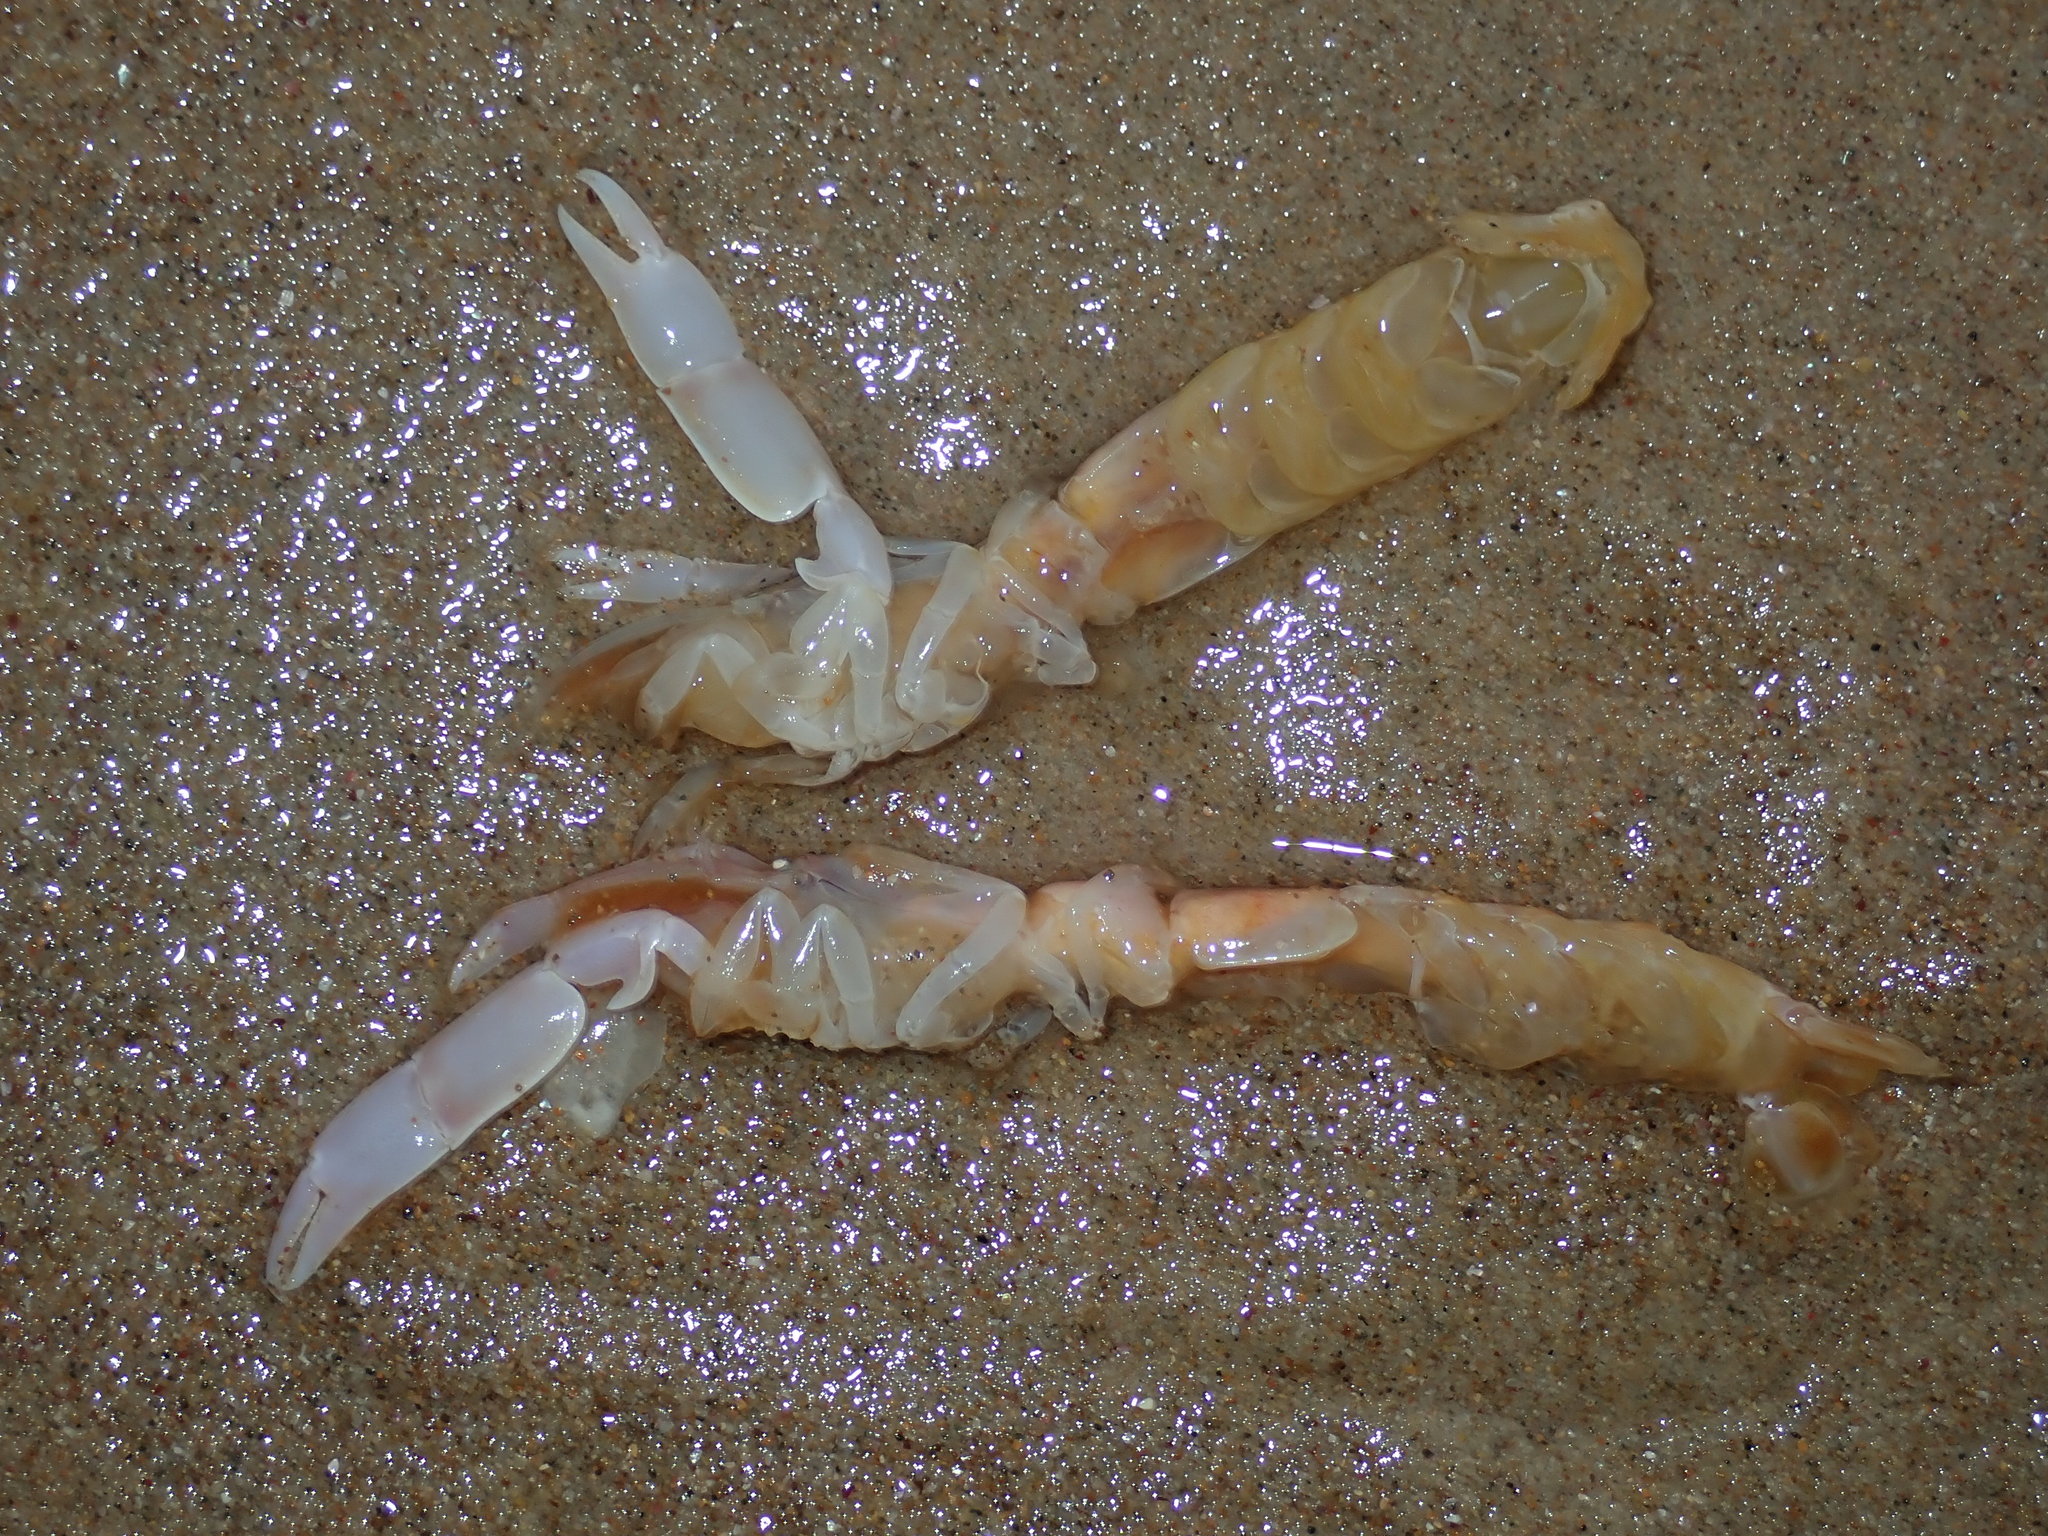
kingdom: Animalia
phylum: Arthropoda
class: Malacostraca
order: Decapoda
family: Callianassidae
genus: Trypaea
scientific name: Trypaea australiensis
